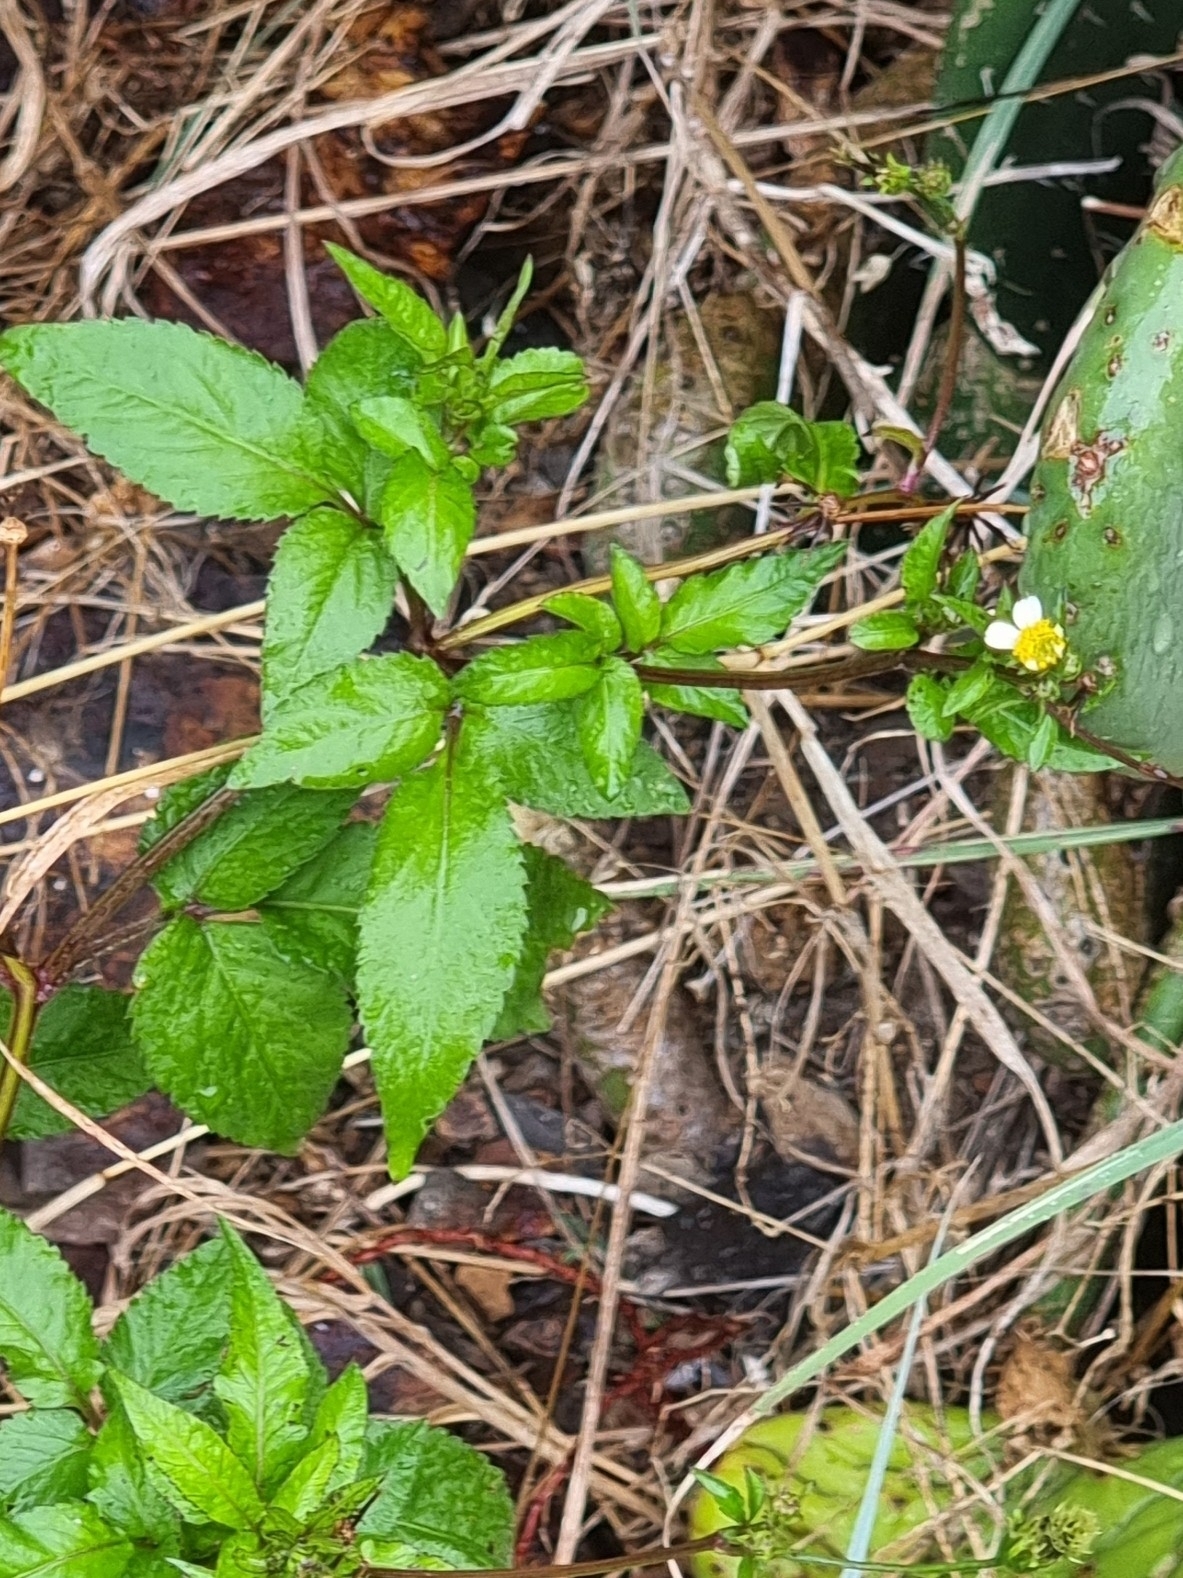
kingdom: Plantae
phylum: Tracheophyta
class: Magnoliopsida
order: Asterales
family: Asteraceae
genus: Bidens
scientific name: Bidens pilosa
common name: Black-jack
